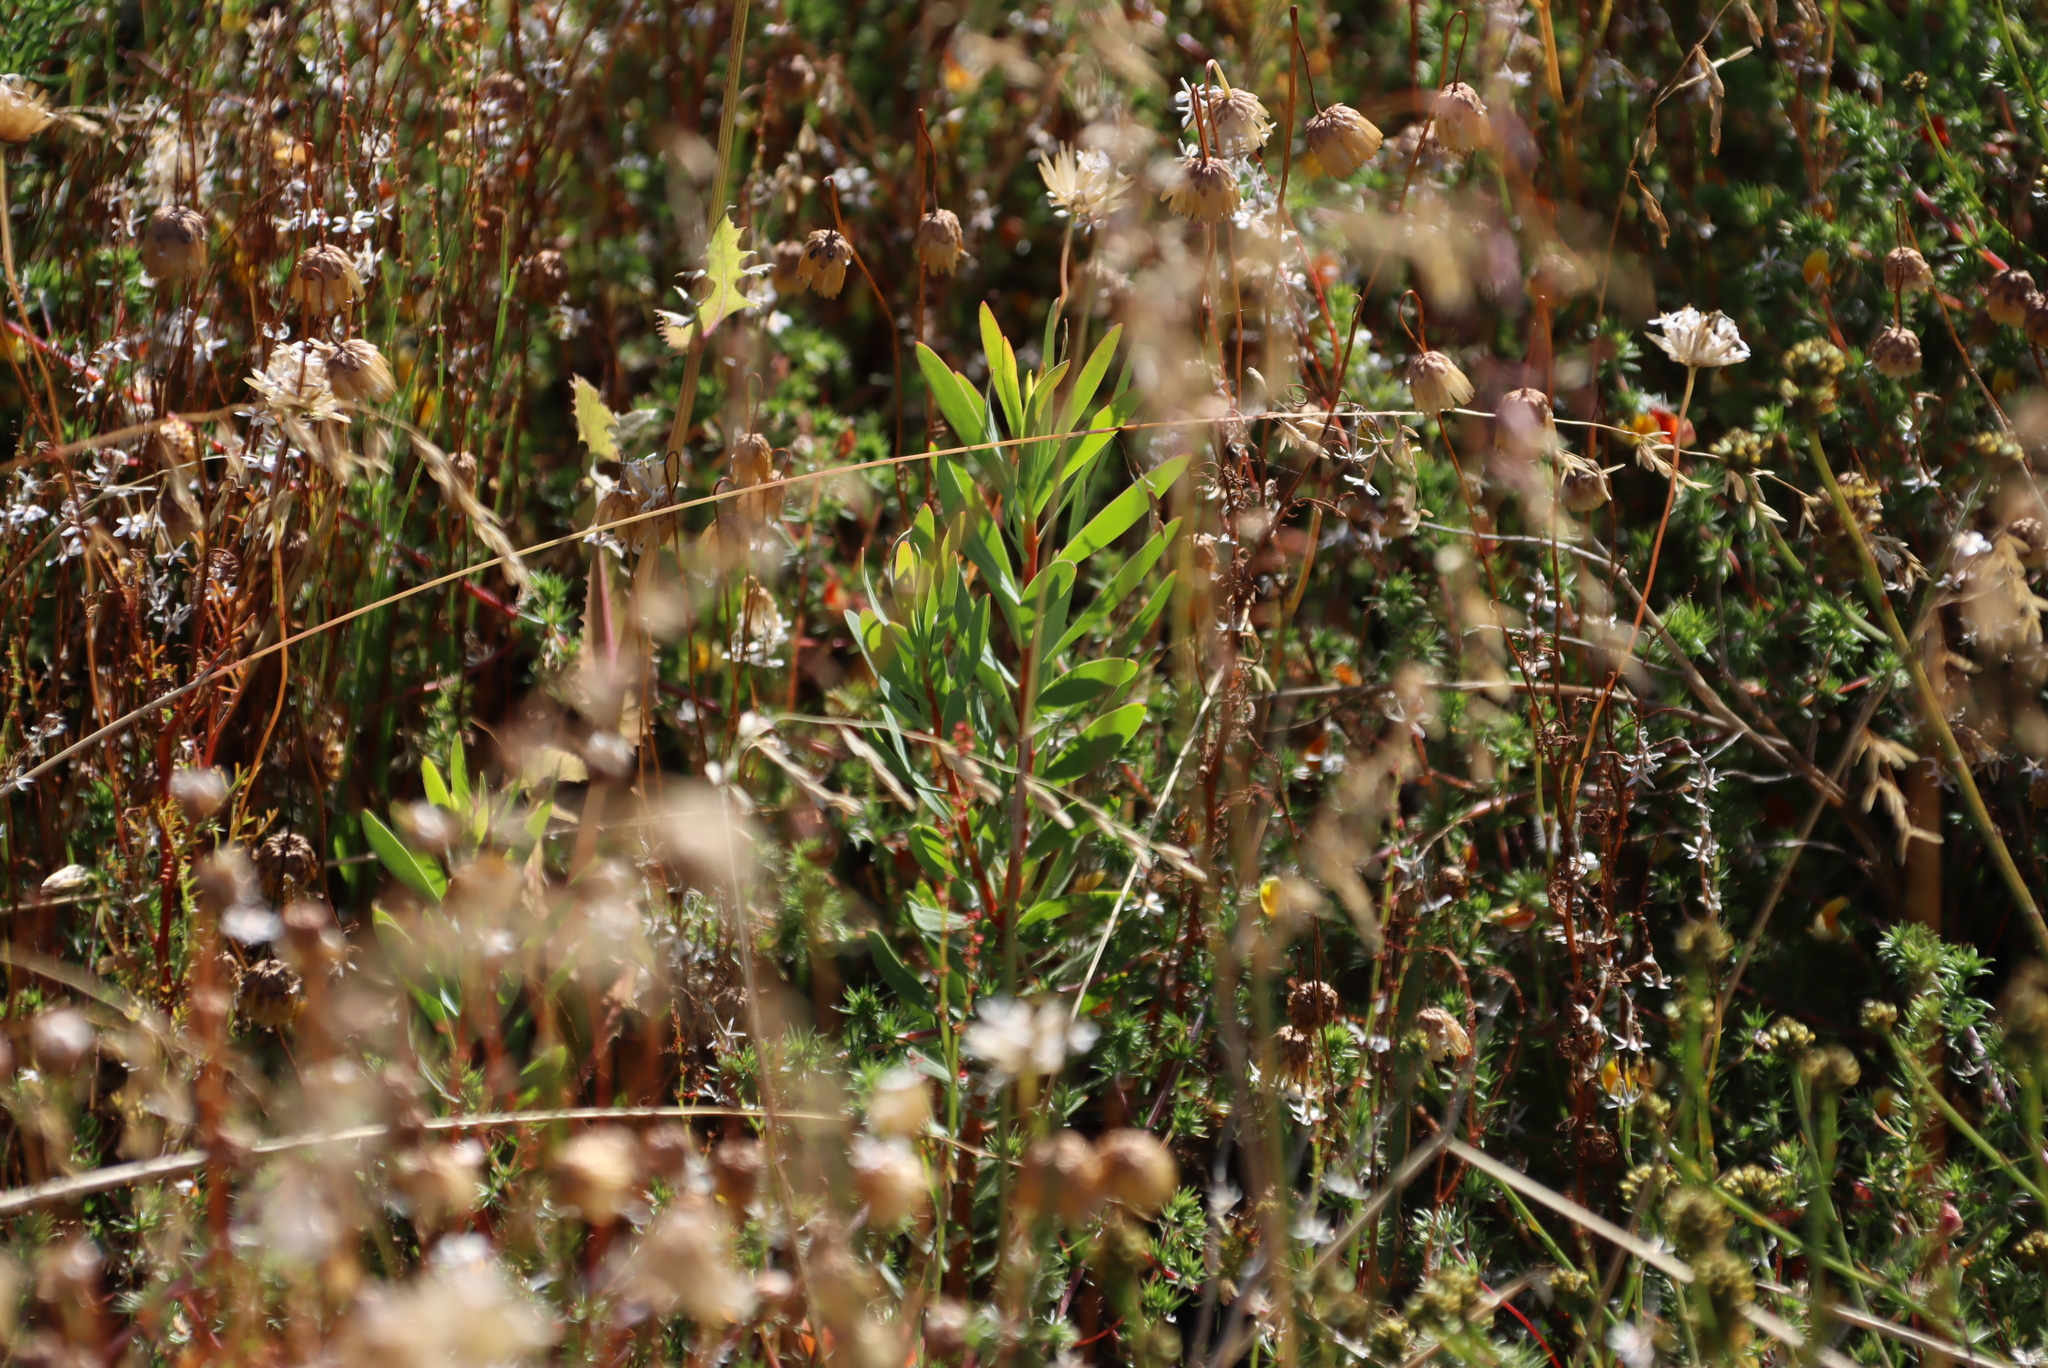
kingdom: Plantae
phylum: Tracheophyta
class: Magnoliopsida
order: Proteales
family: Proteaceae
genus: Protea
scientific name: Protea repens
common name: Sugarbush
